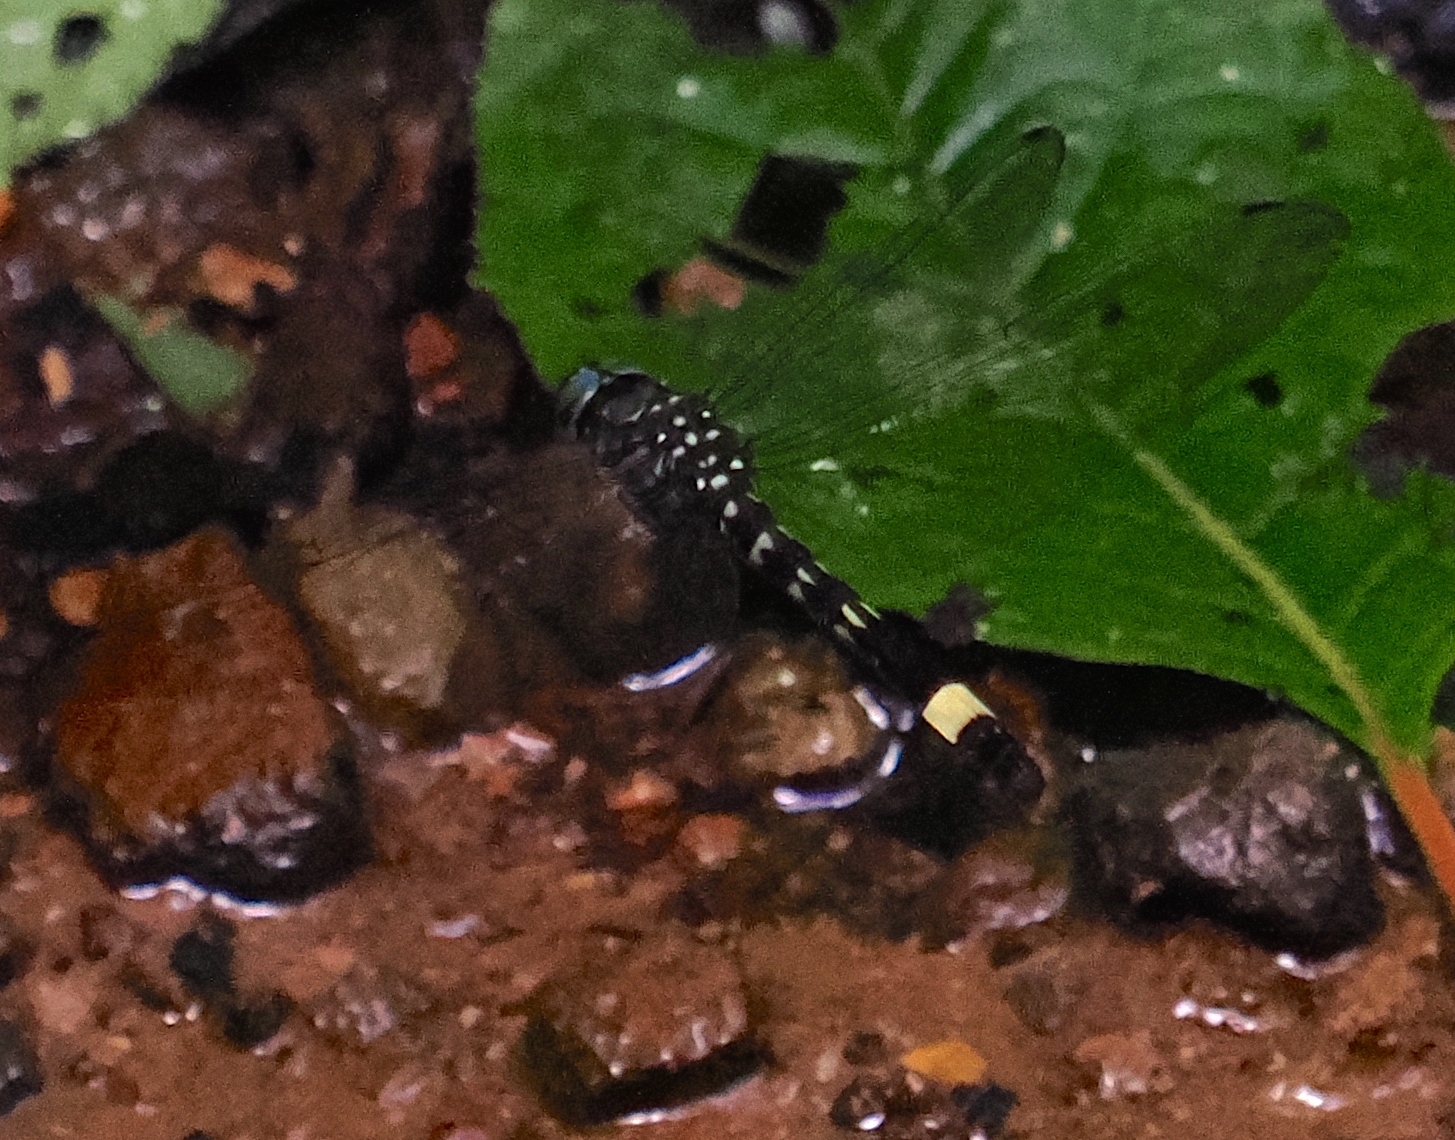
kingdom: Animalia
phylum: Arthropoda
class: Insecta
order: Odonata
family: Libellulidae
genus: Brechmorhoga
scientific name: Brechmorhoga rapax
